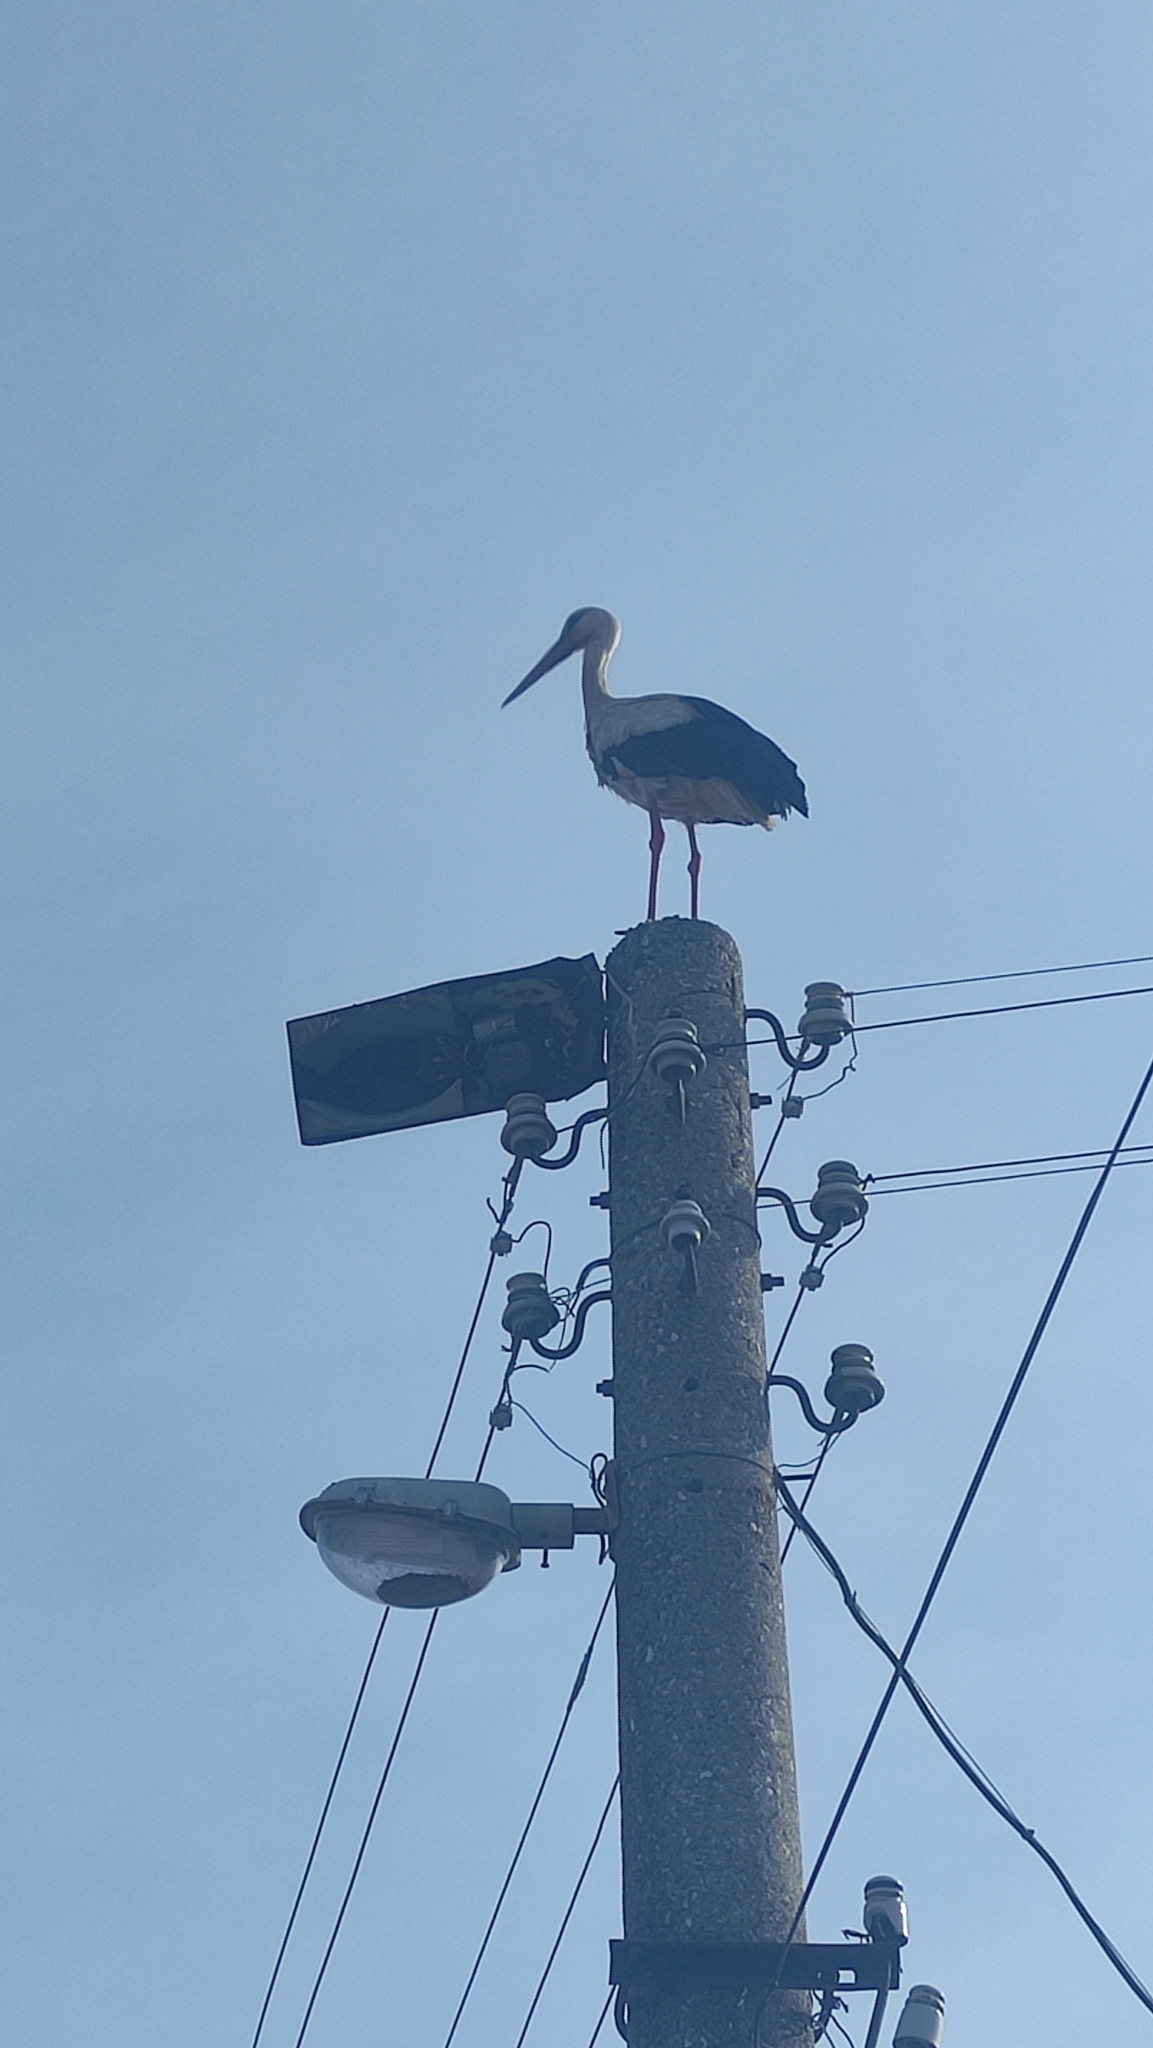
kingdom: Animalia
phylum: Chordata
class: Aves
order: Ciconiiformes
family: Ciconiidae
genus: Ciconia
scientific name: Ciconia ciconia
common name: White stork
